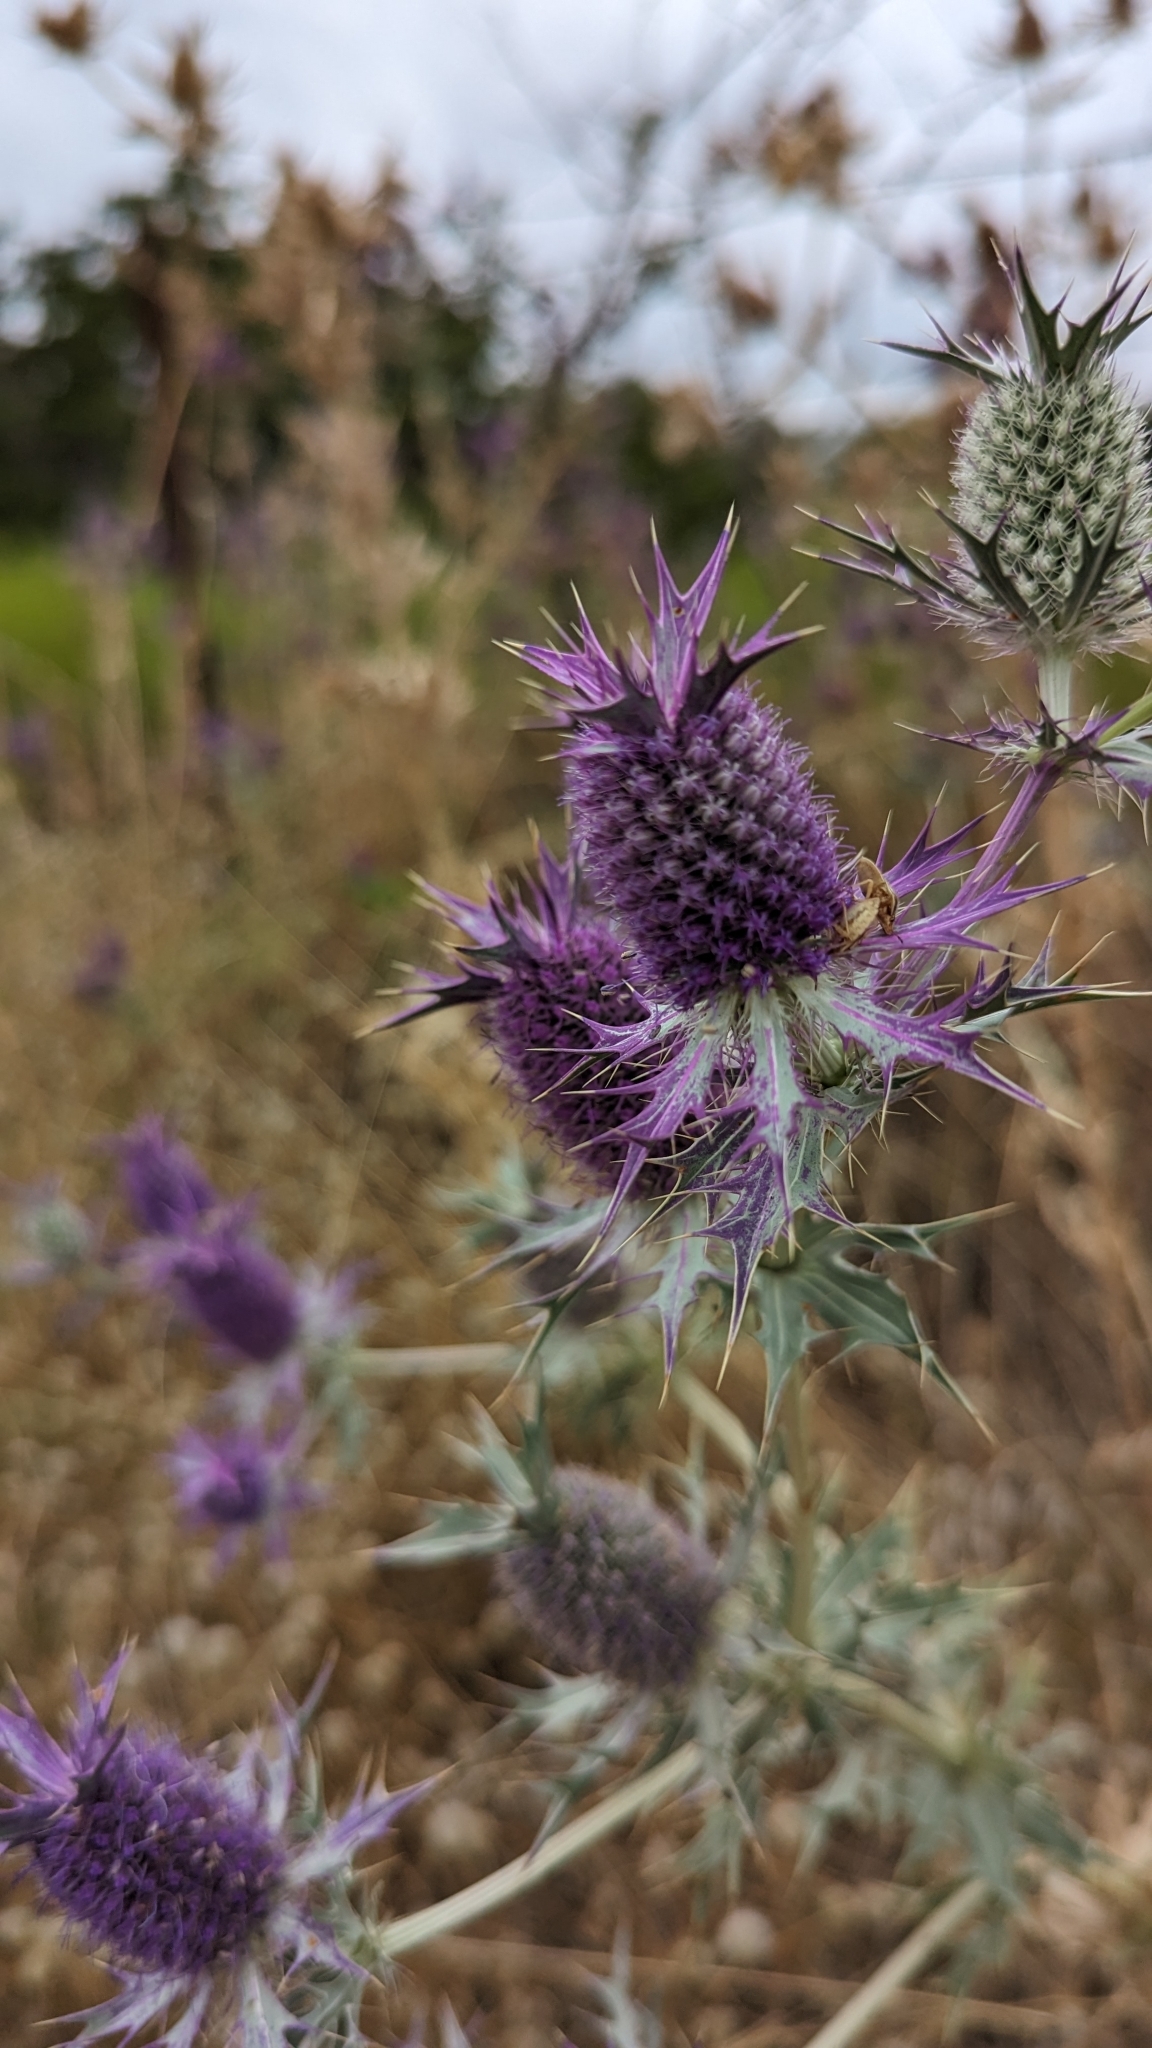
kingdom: Plantae
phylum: Tracheophyta
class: Magnoliopsida
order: Apiales
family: Apiaceae
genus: Eryngium
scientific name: Eryngium leavenworthii
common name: Leavenworth's eryngo
